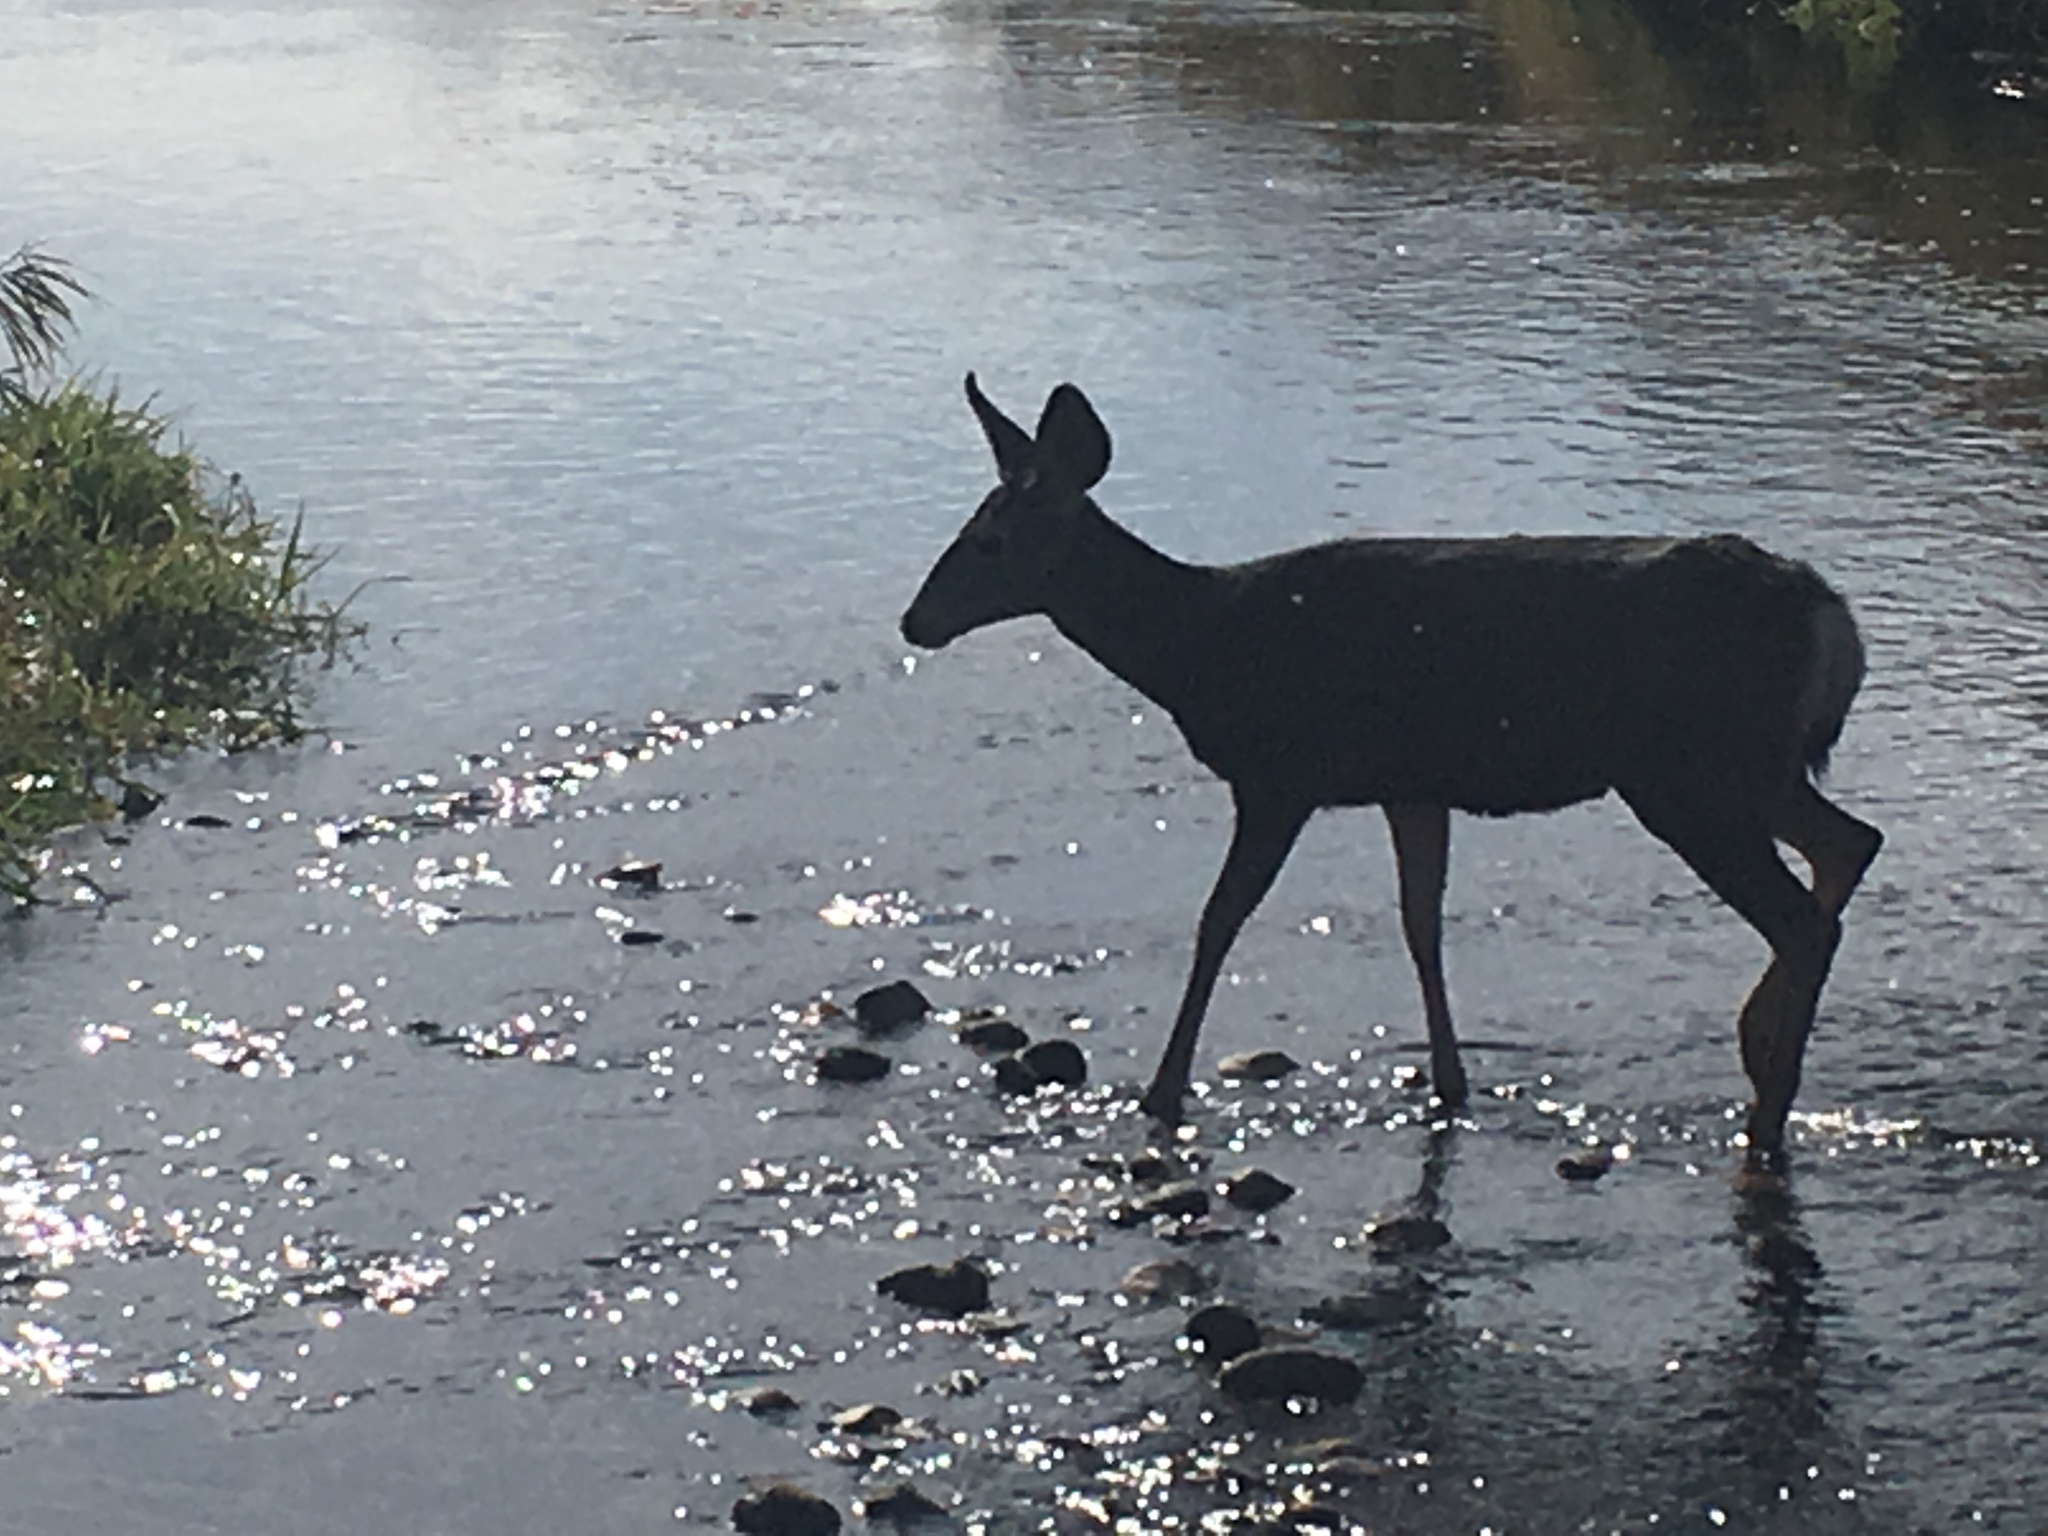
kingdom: Animalia
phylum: Chordata
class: Mammalia
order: Artiodactyla
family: Cervidae
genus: Odocoileus
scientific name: Odocoileus hemionus
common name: Mule deer
